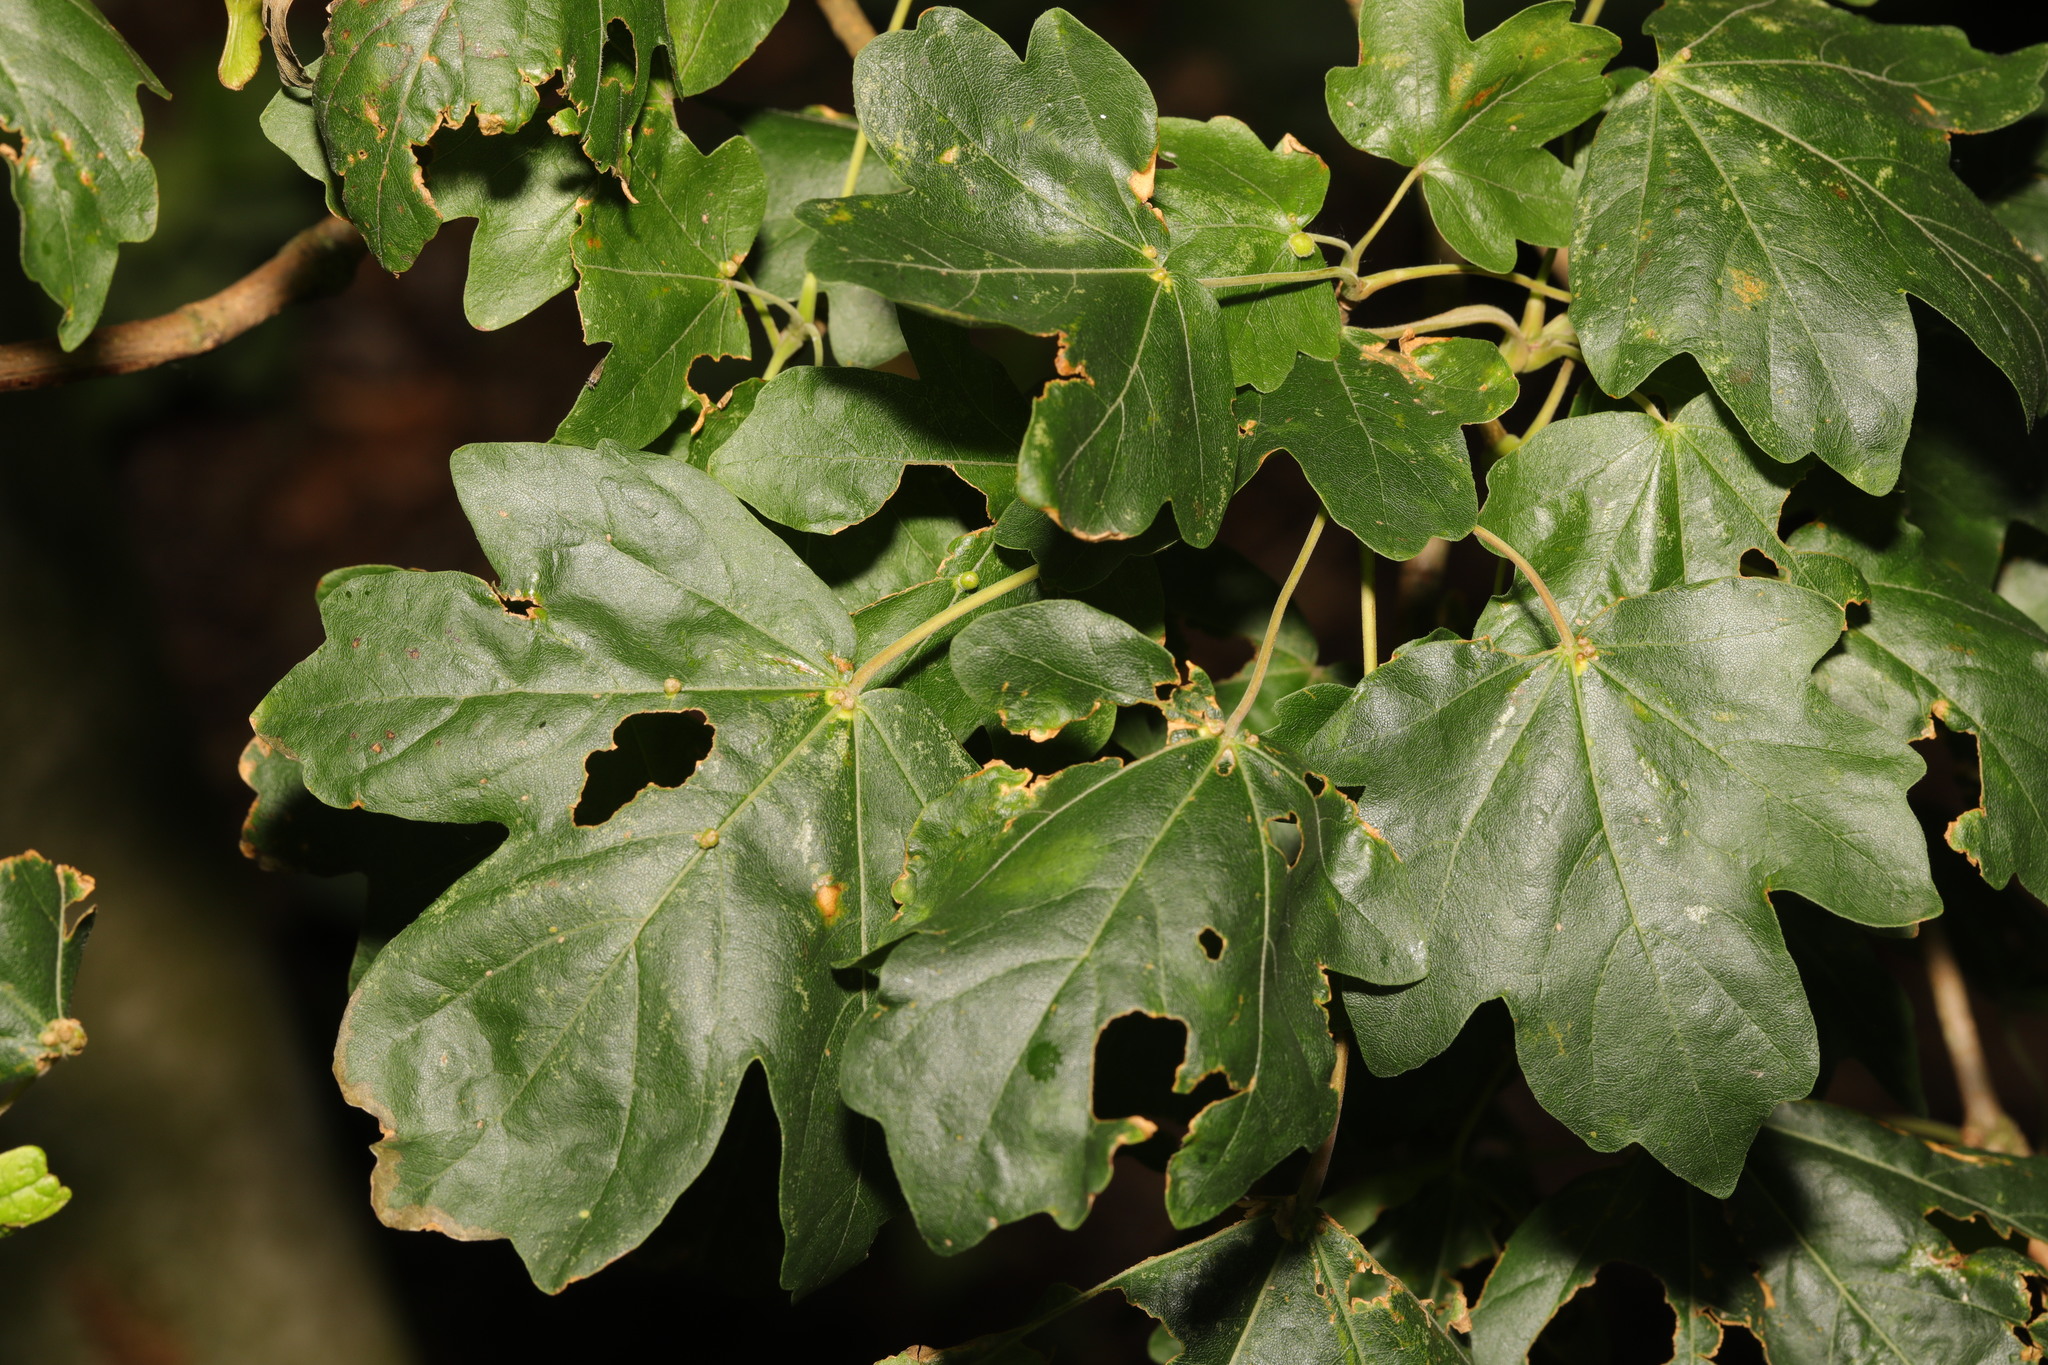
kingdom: Plantae
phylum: Tracheophyta
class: Magnoliopsida
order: Sapindales
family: Sapindaceae
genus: Acer
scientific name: Acer campestre
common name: Field maple
